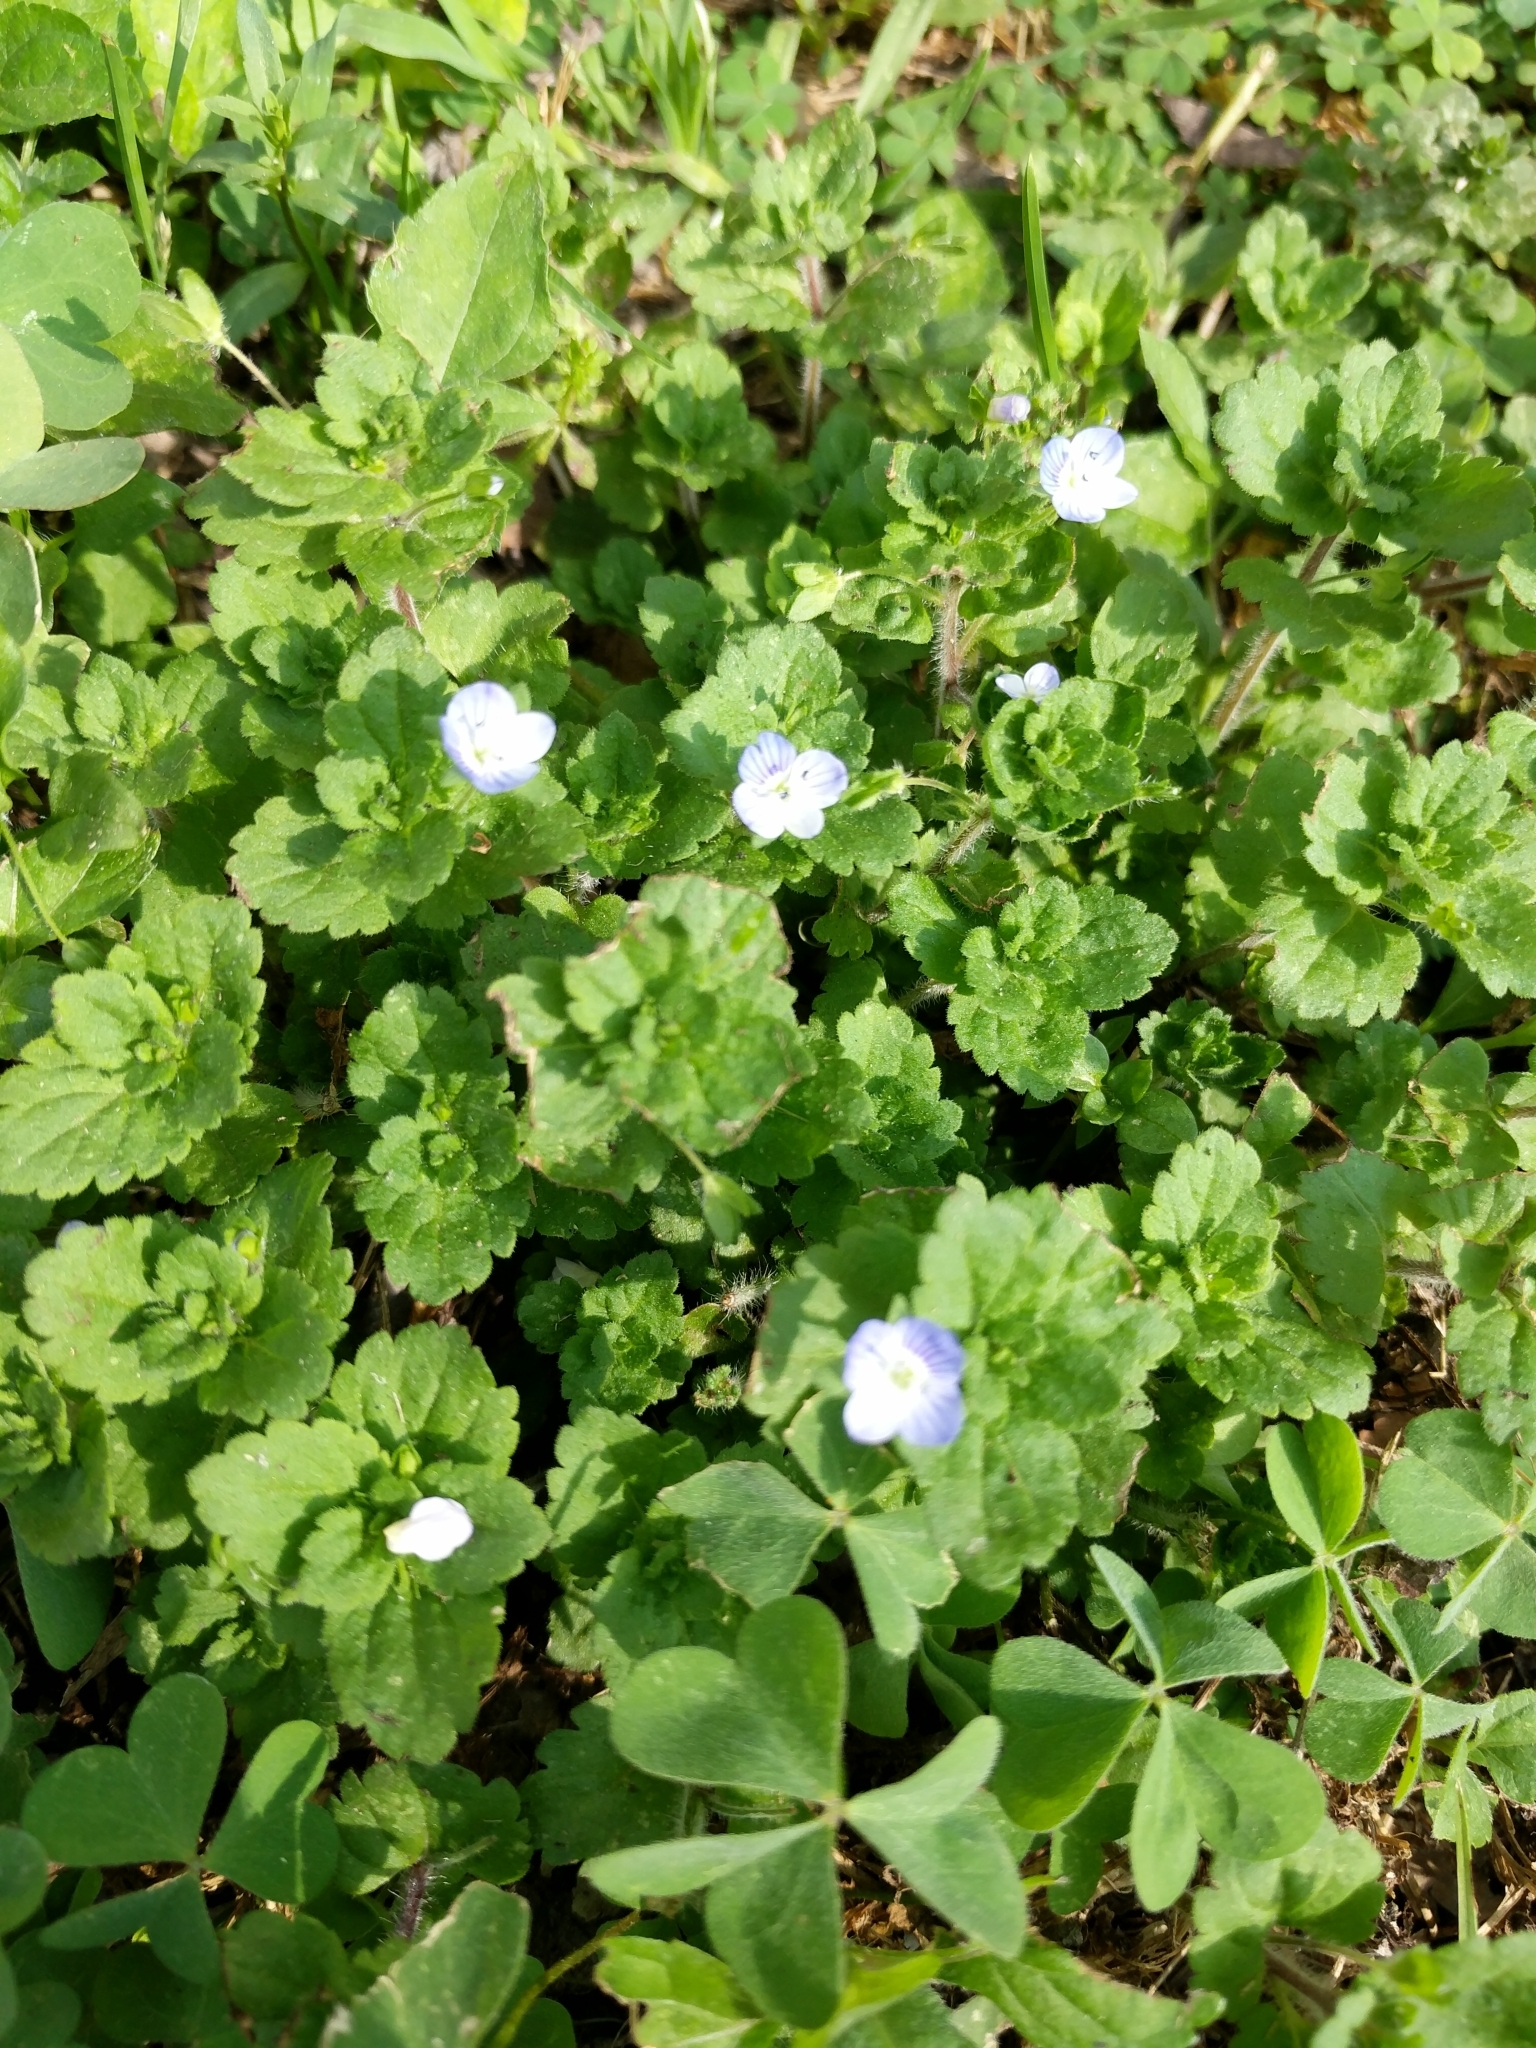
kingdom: Plantae
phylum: Tracheophyta
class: Magnoliopsida
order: Lamiales
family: Plantaginaceae
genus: Veronica
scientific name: Veronica persica
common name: Common field-speedwell
